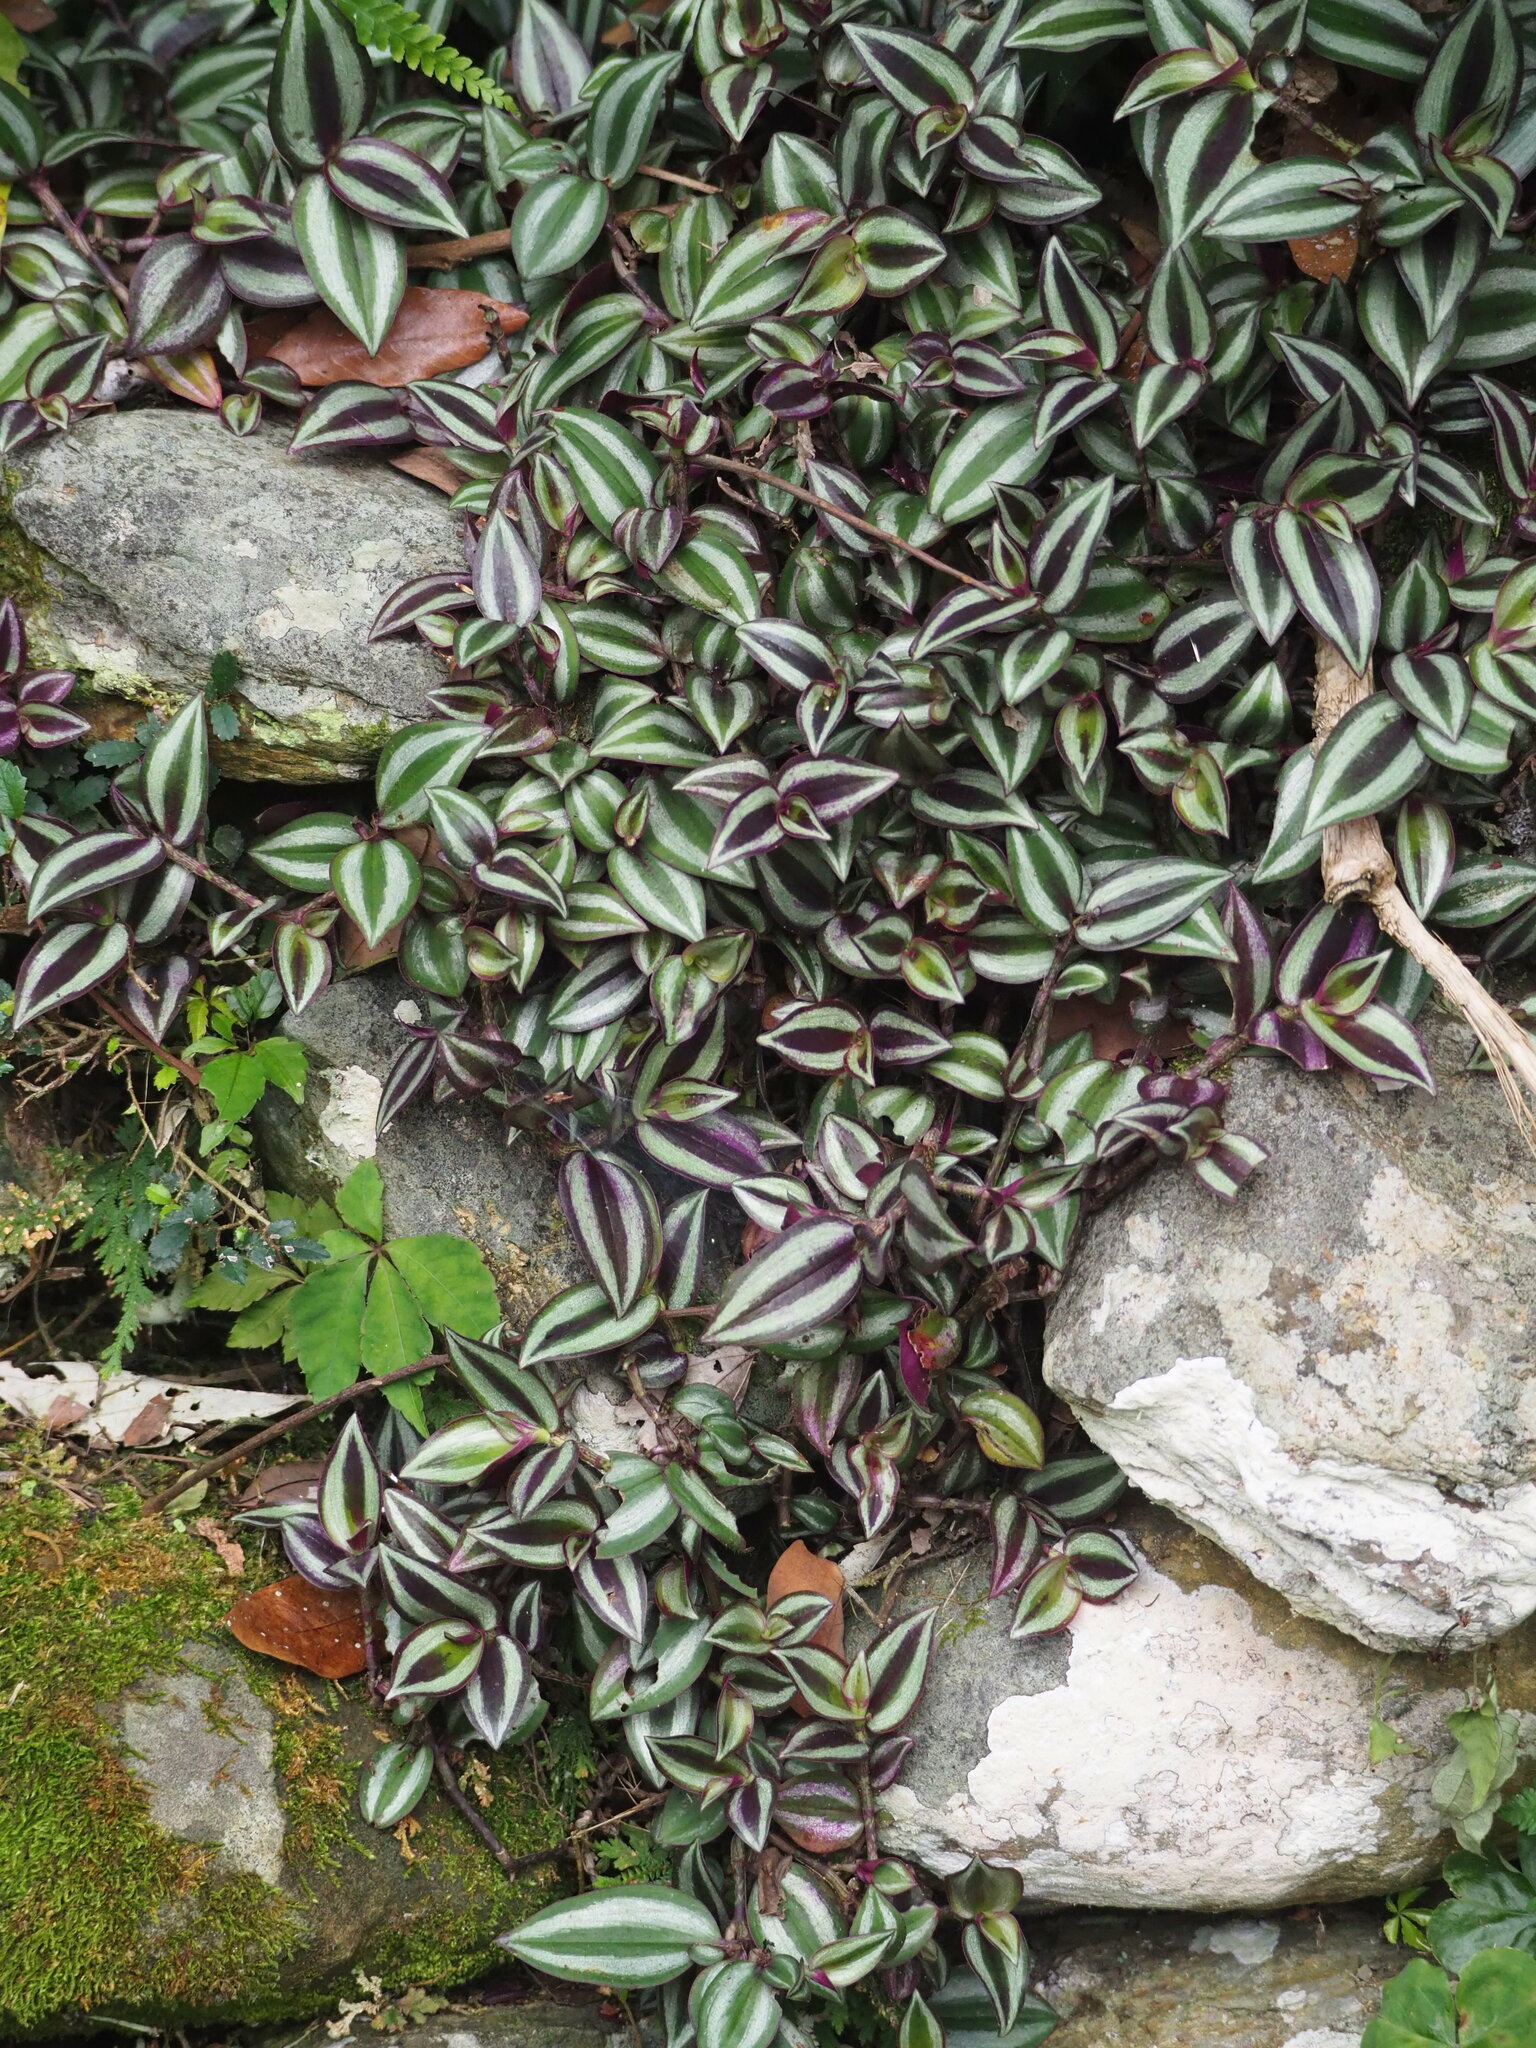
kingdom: Plantae
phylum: Tracheophyta
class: Liliopsida
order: Commelinales
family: Commelinaceae
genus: Tradescantia
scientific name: Tradescantia zebrina
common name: Inchplant
